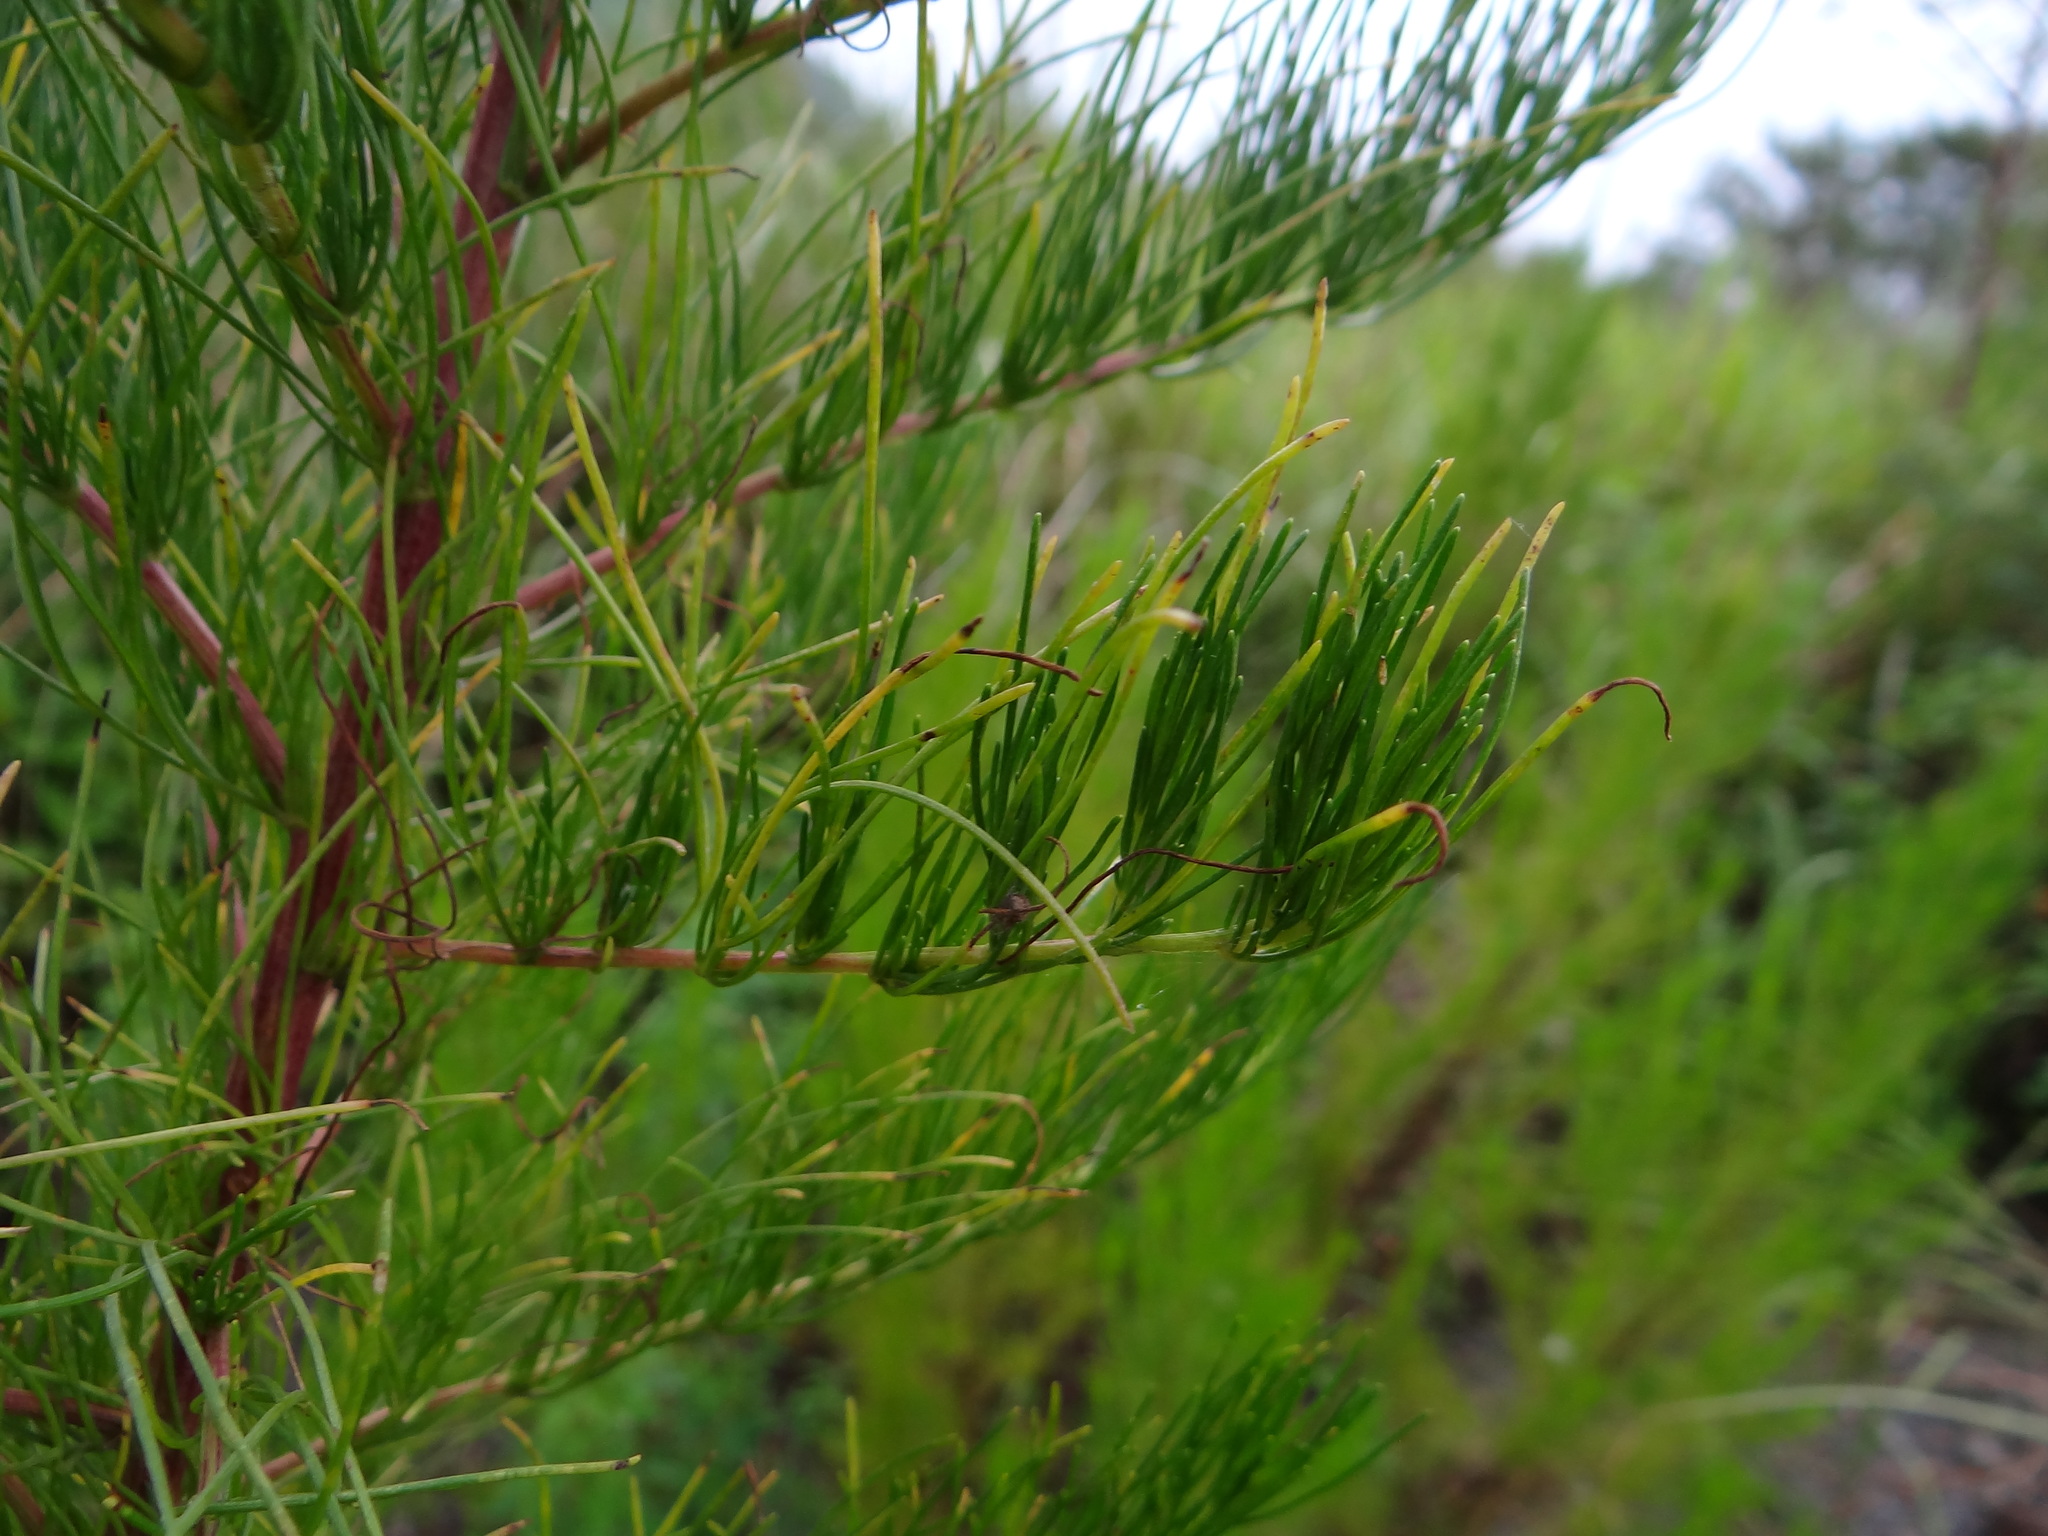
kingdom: Plantae
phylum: Tracheophyta
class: Magnoliopsida
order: Asterales
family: Asteraceae
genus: Artemisia
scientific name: Artemisia capillaris
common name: Yin-chen wormwood
